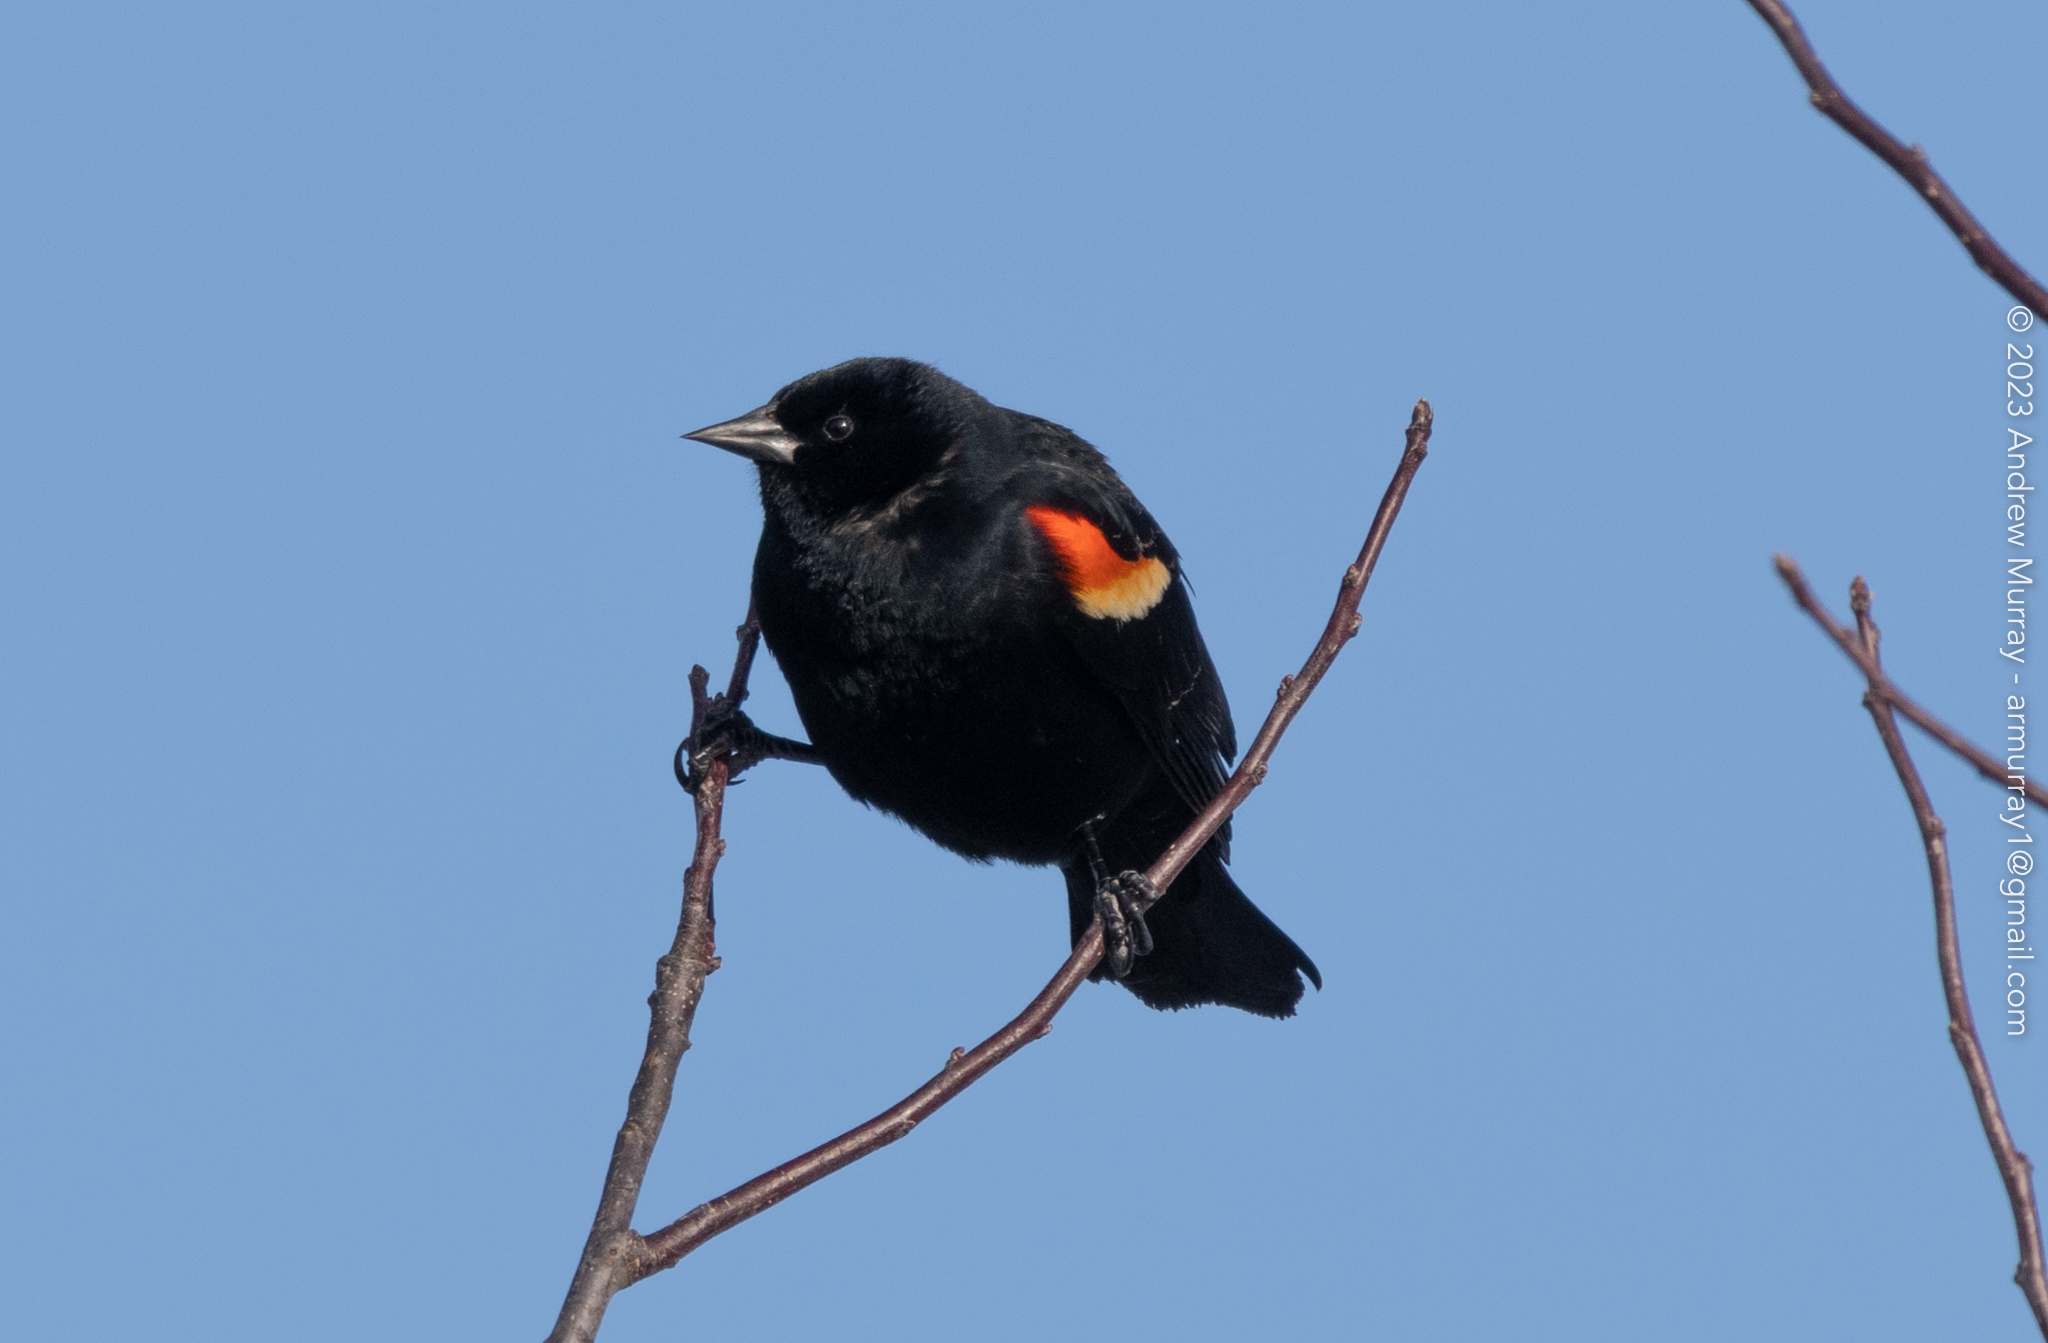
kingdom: Animalia
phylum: Chordata
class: Aves
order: Passeriformes
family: Icteridae
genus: Agelaius
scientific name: Agelaius phoeniceus
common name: Red-winged blackbird
